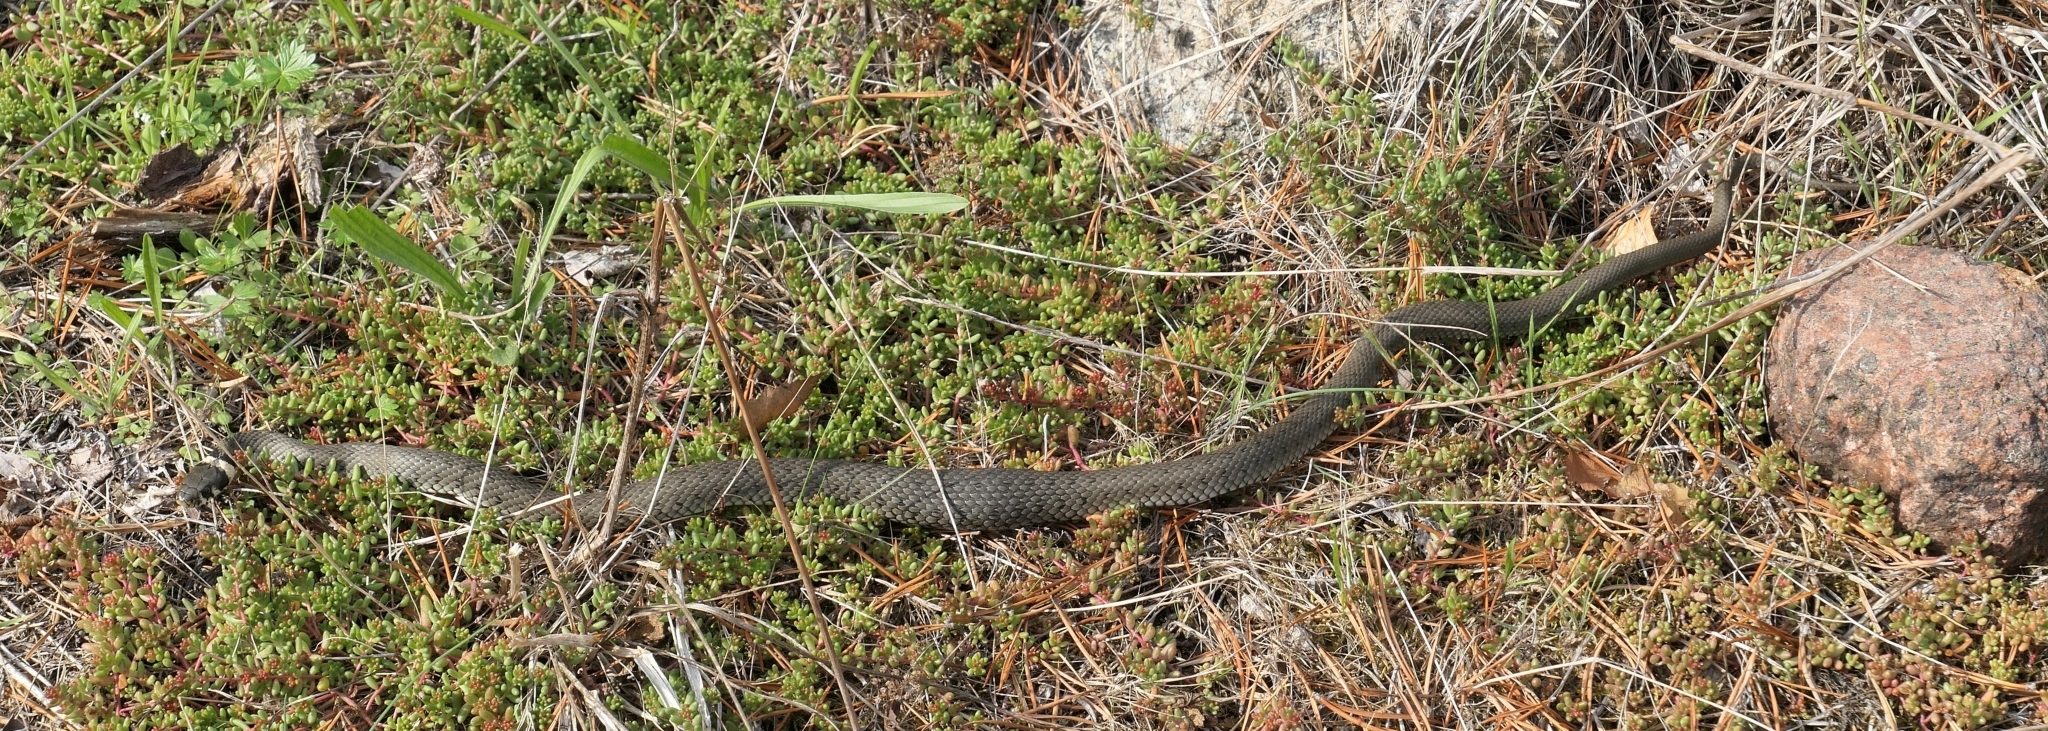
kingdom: Animalia
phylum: Chordata
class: Squamata
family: Colubridae
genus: Natrix
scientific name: Natrix natrix
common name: Grass snake
